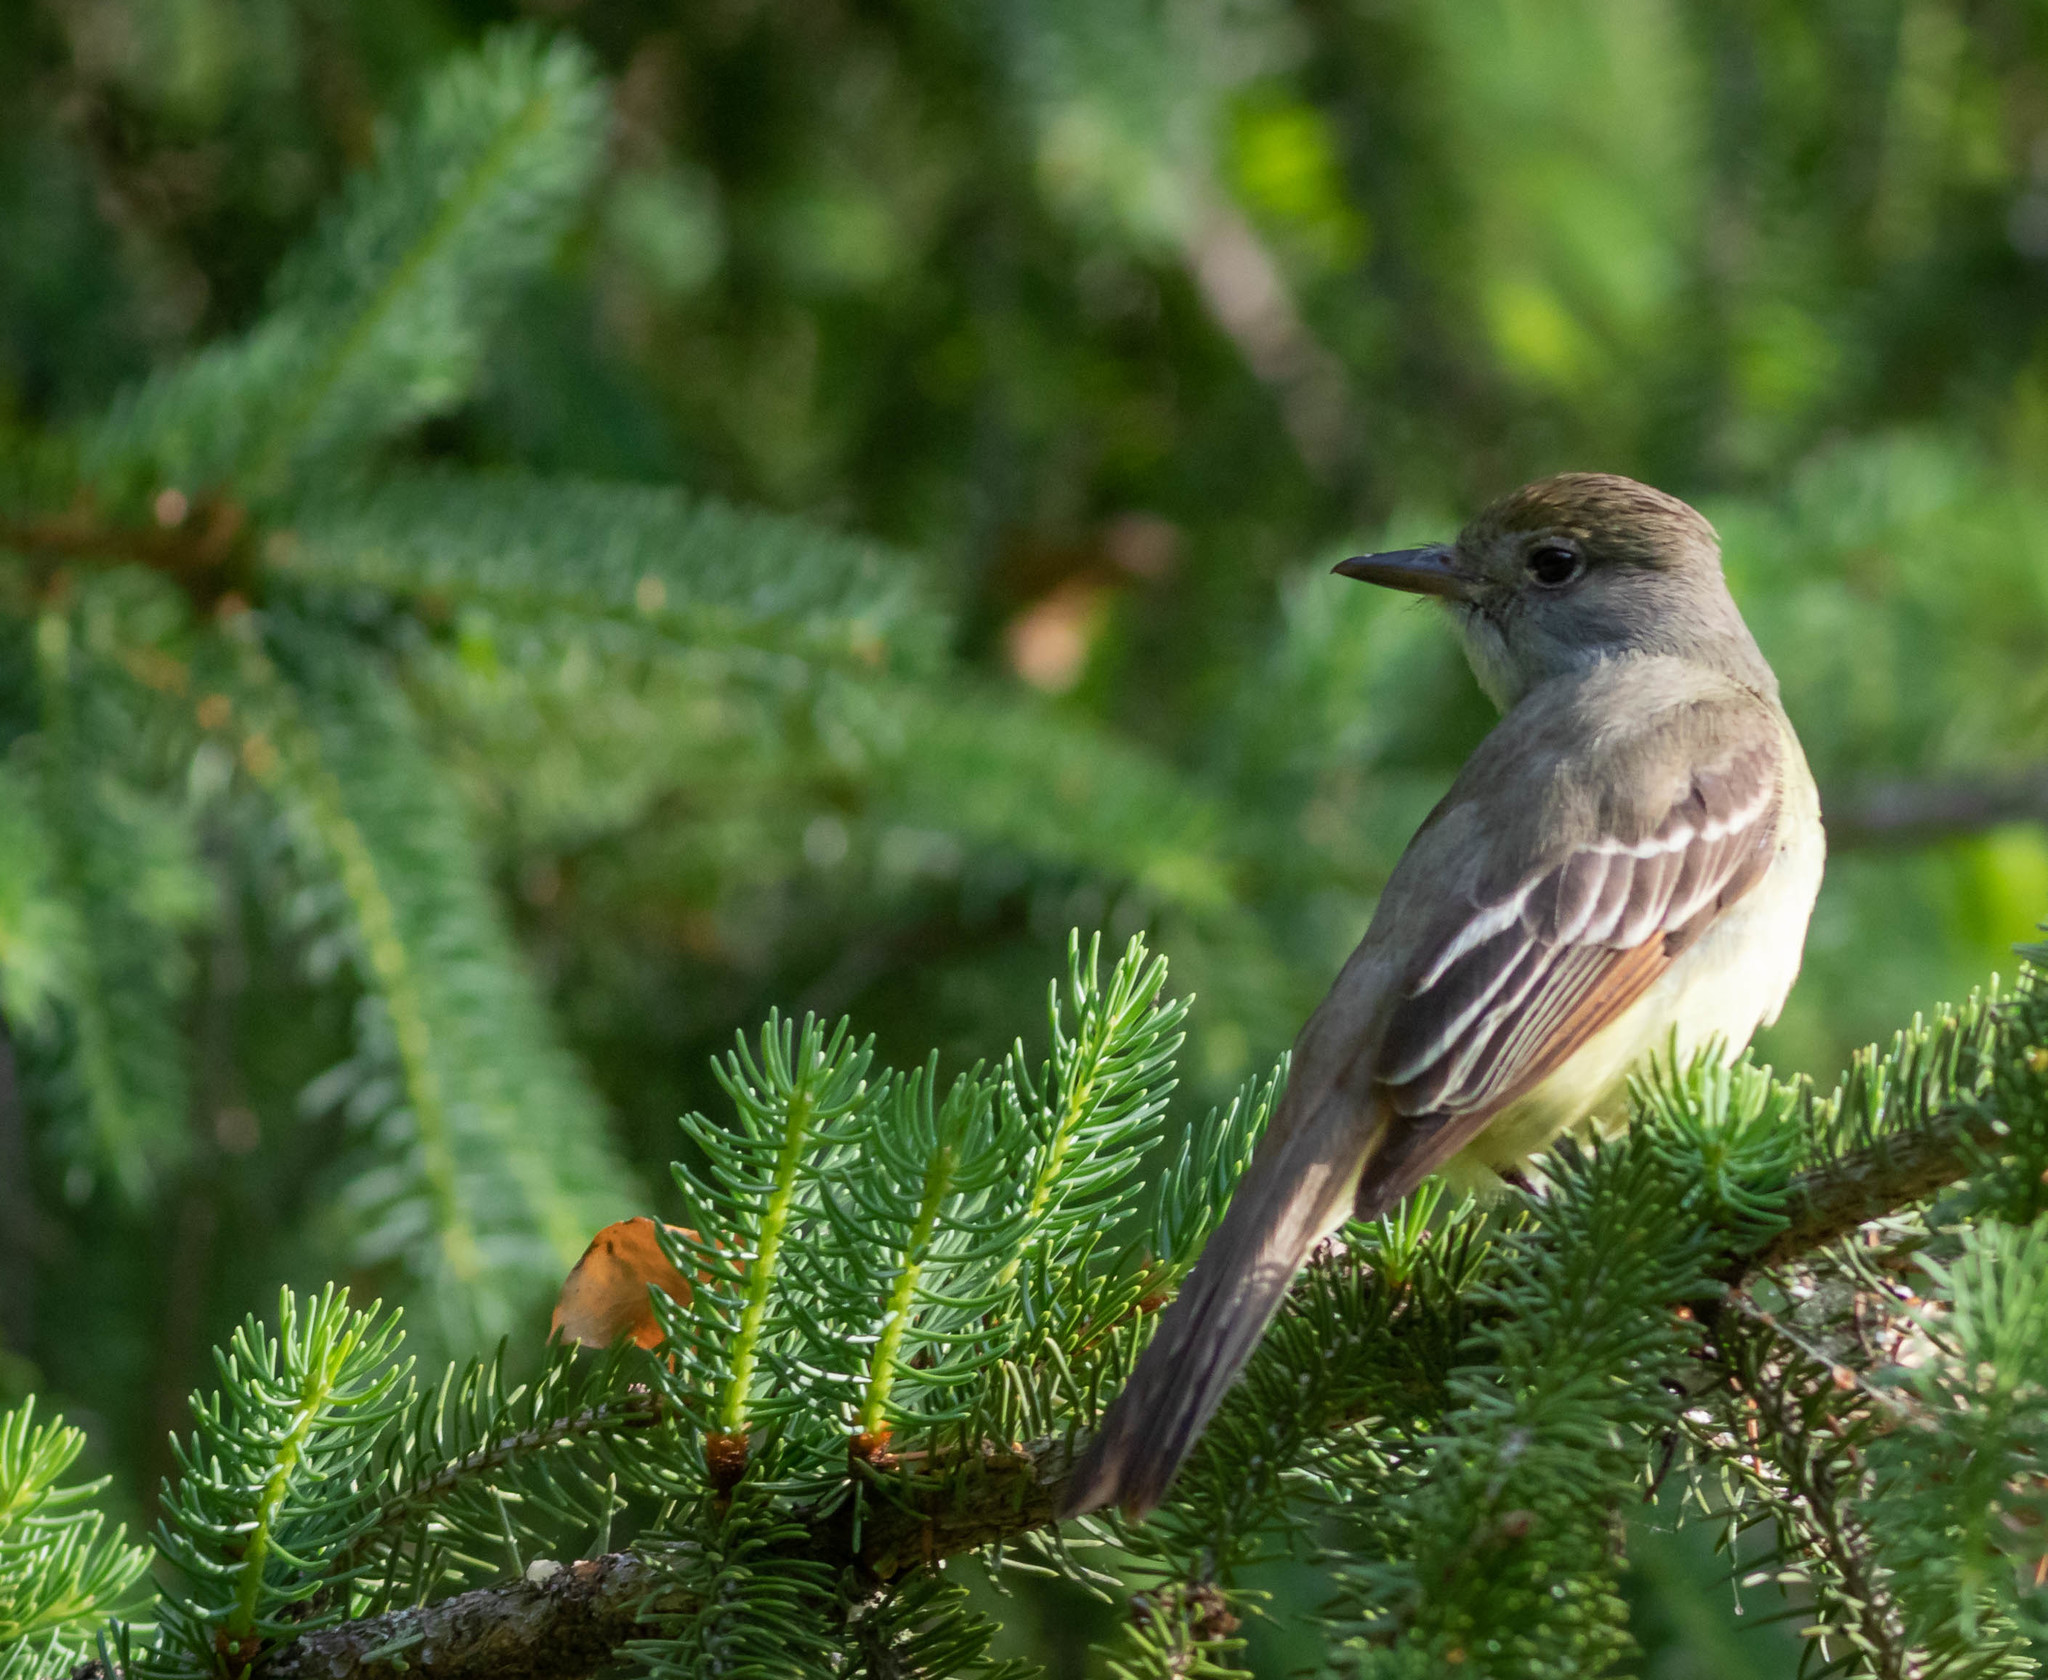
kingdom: Animalia
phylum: Chordata
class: Aves
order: Passeriformes
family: Tyrannidae
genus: Myiarchus
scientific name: Myiarchus crinitus
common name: Great crested flycatcher
